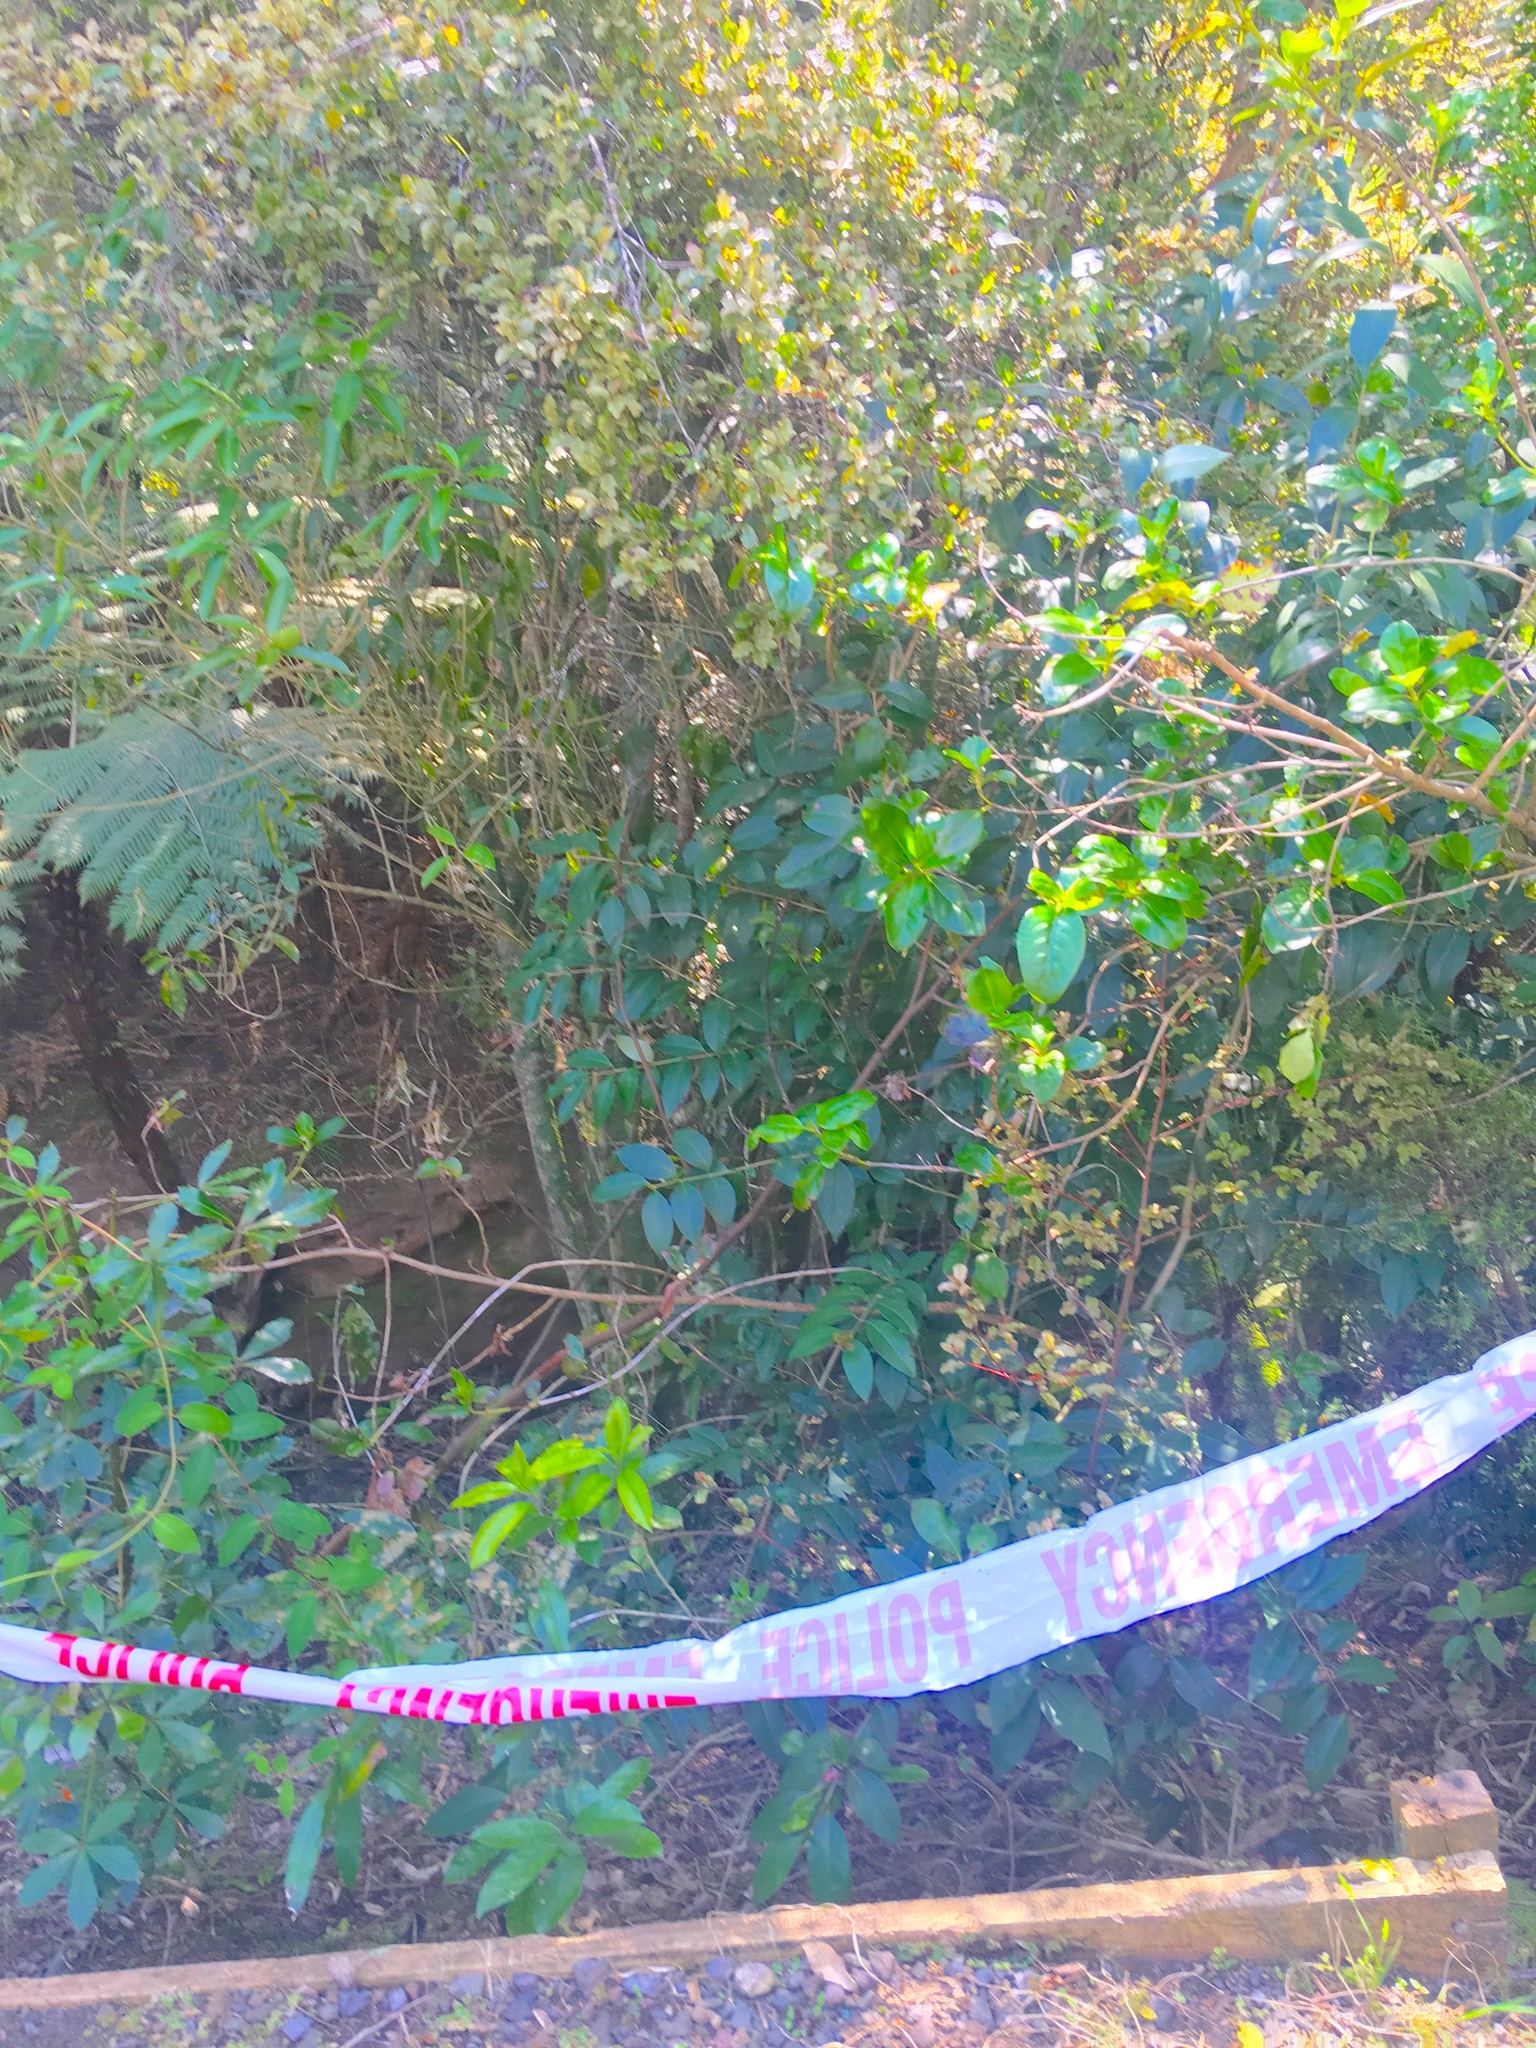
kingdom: Plantae
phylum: Tracheophyta
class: Magnoliopsida
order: Ericales
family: Primulaceae
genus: Myrsine
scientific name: Myrsine australis
